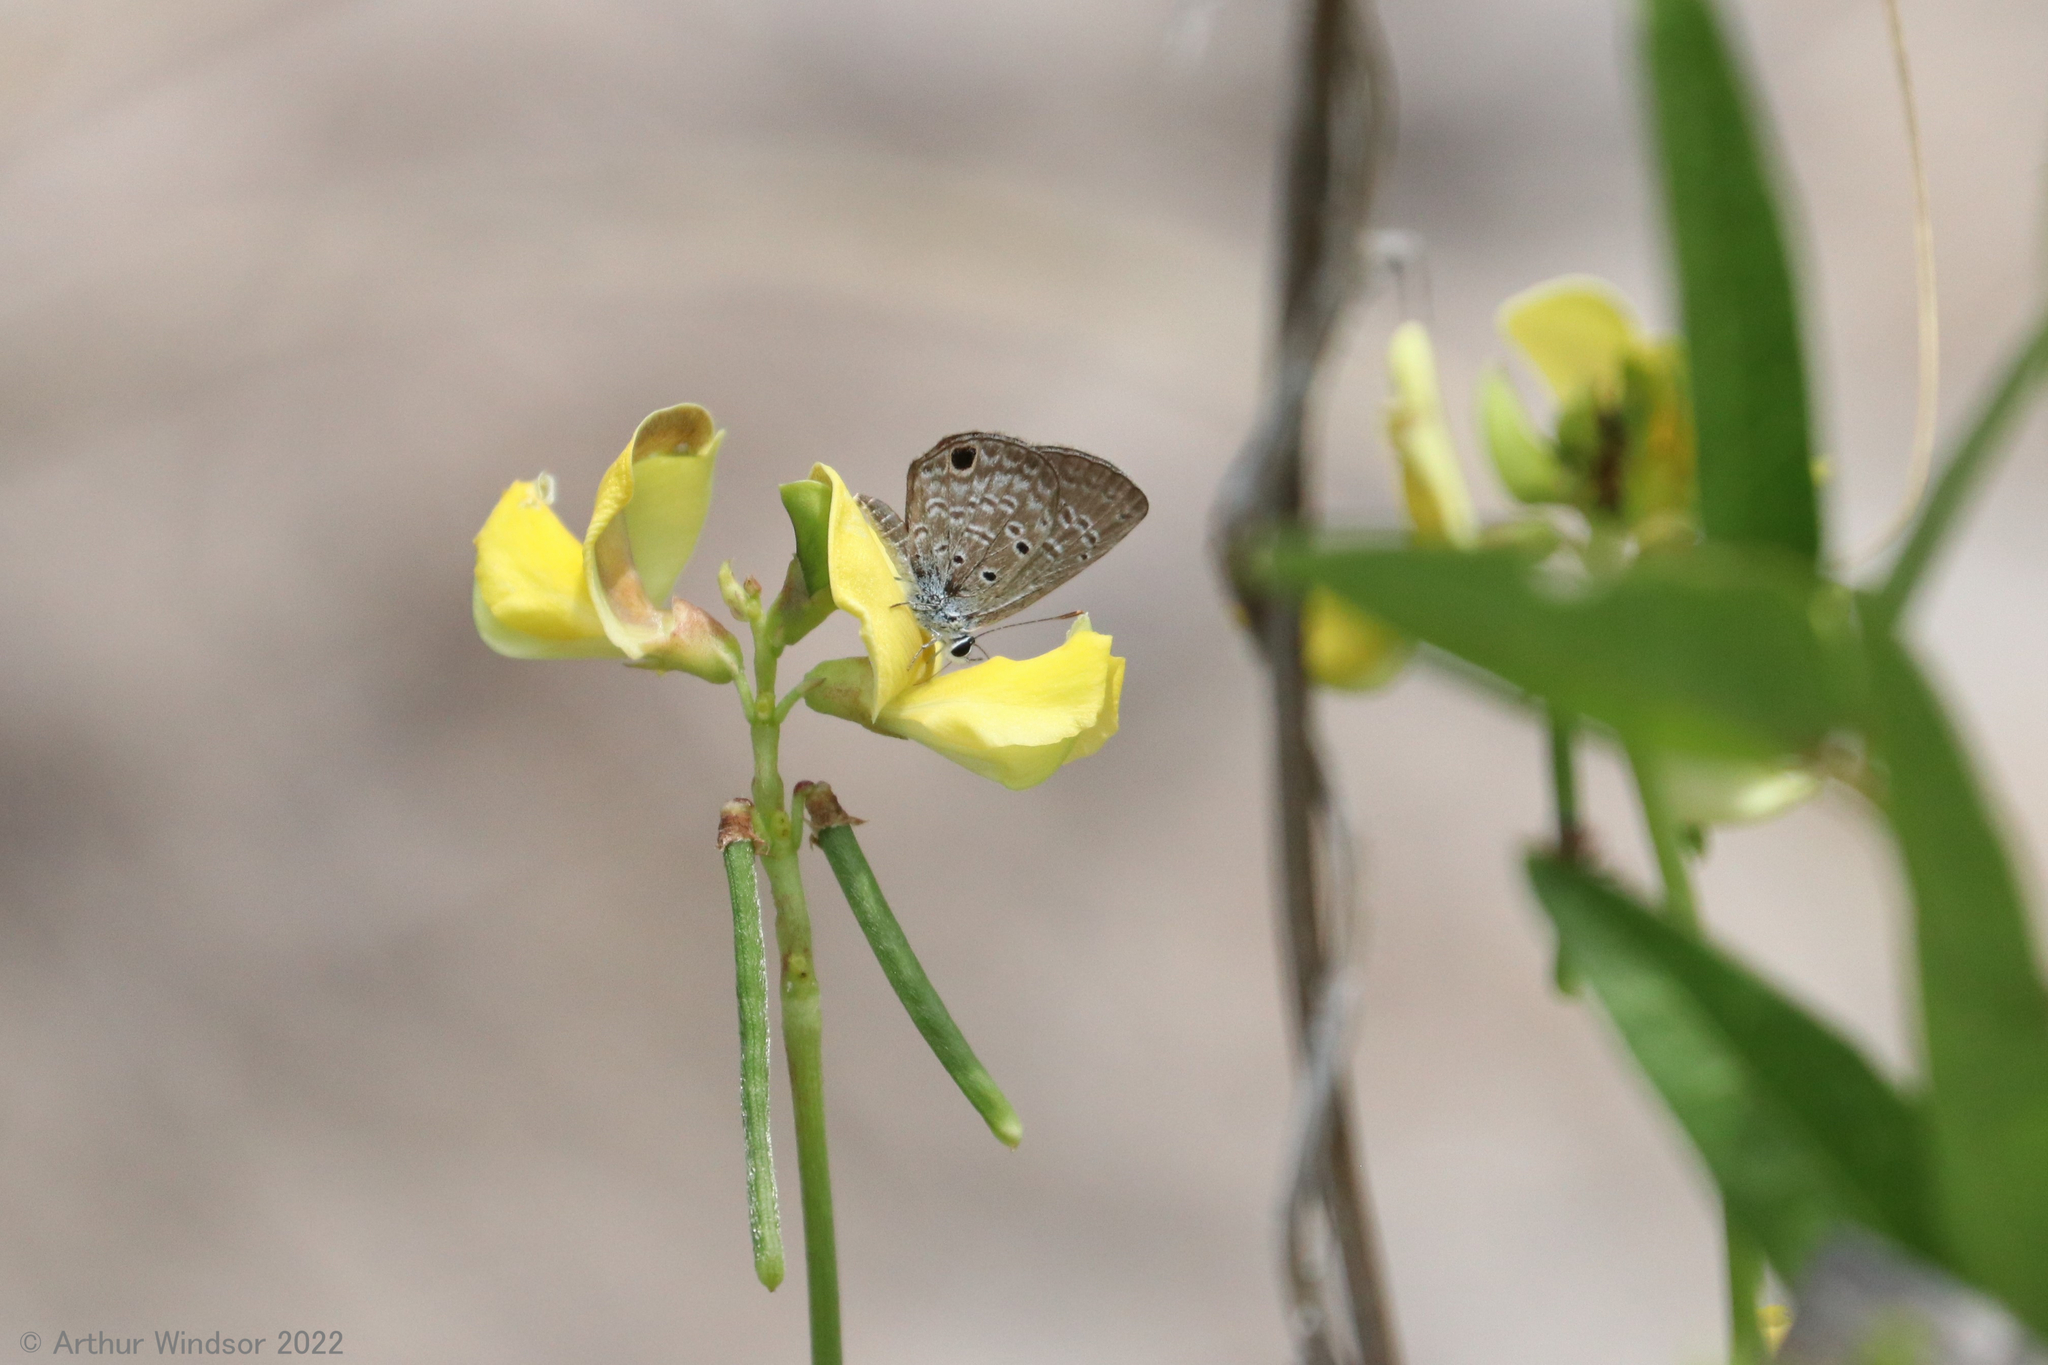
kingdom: Animalia
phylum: Arthropoda
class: Insecta
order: Lepidoptera
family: Lycaenidae
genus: Hemiargus
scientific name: Hemiargus ceraunus
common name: Ceraunus blue
